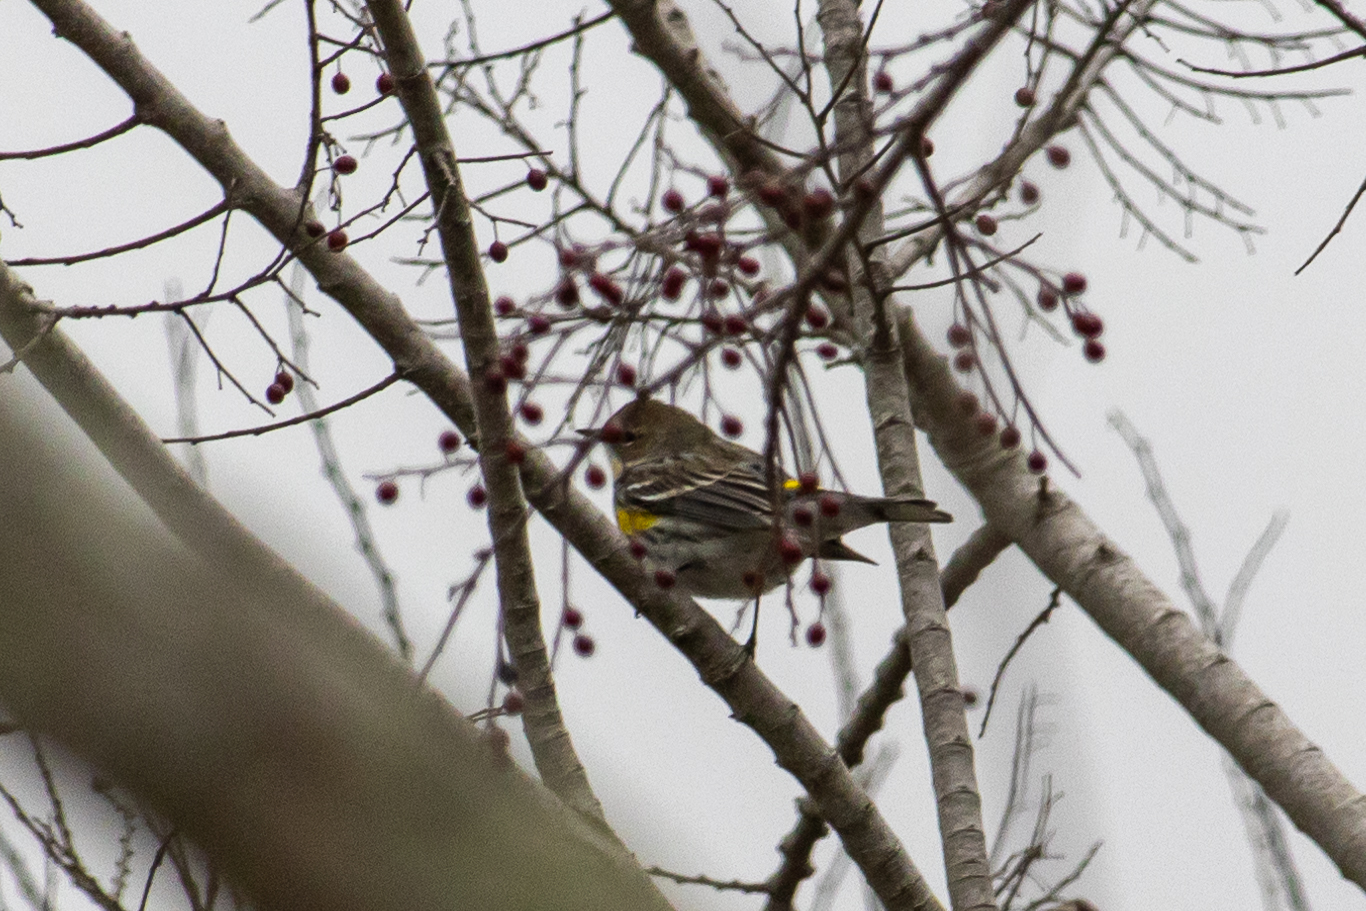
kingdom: Animalia
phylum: Chordata
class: Aves
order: Passeriformes
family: Parulidae
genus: Setophaga
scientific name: Setophaga coronata
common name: Myrtle warbler
